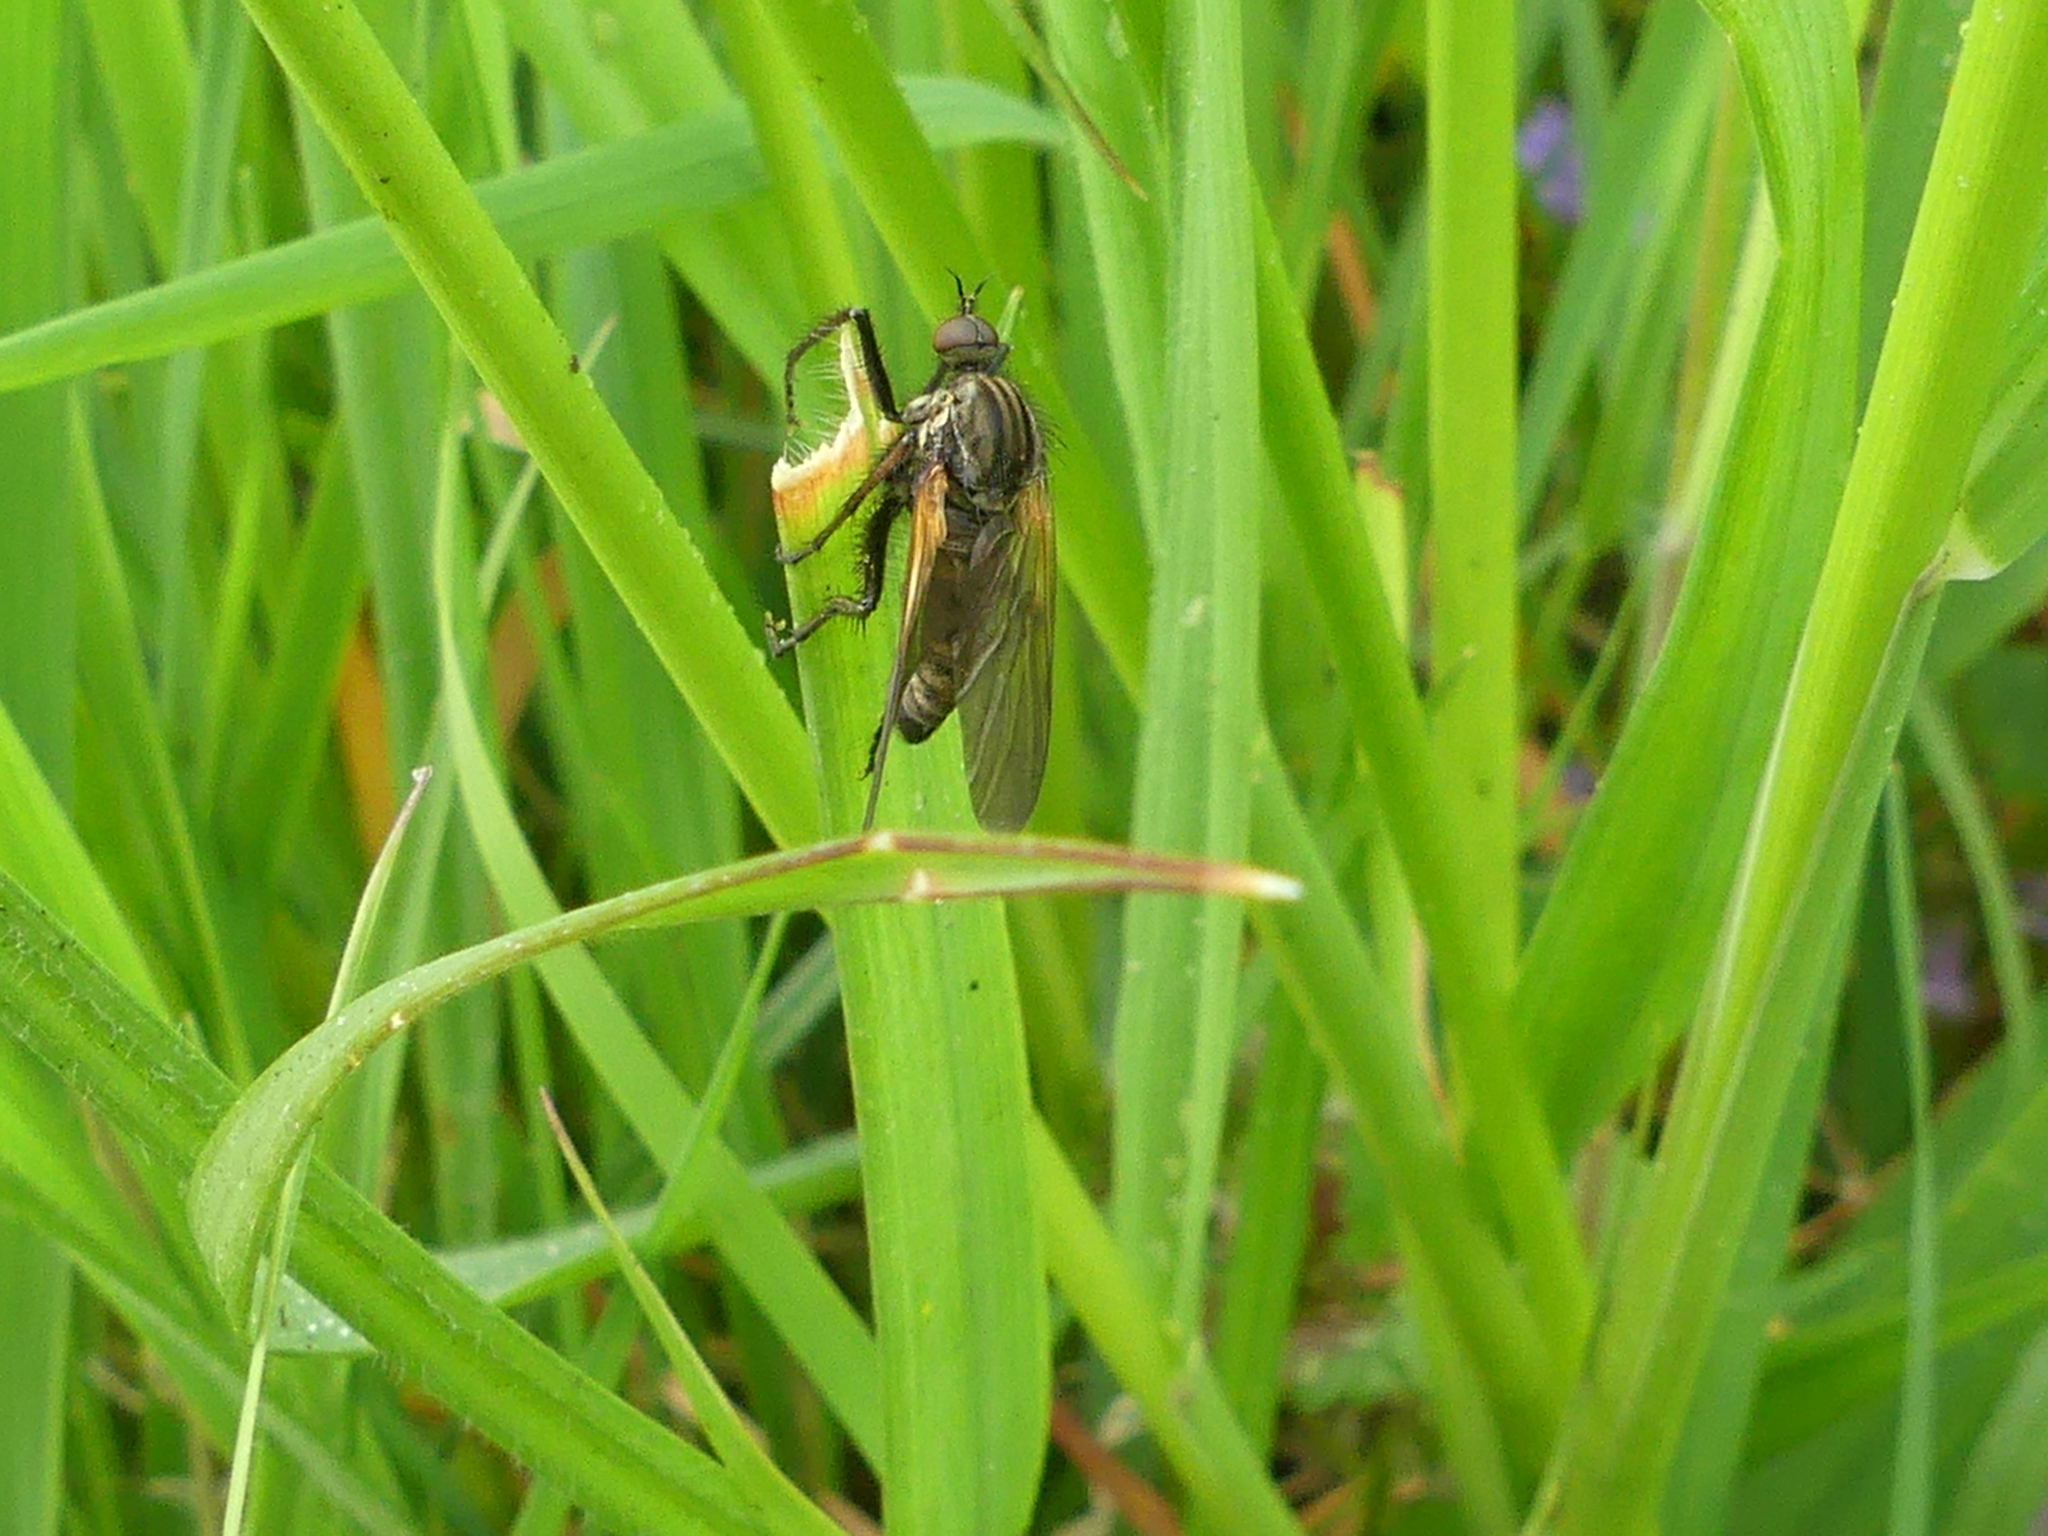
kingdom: Animalia
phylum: Arthropoda
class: Insecta
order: Diptera
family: Empididae
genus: Empis
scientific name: Empis tessellata
